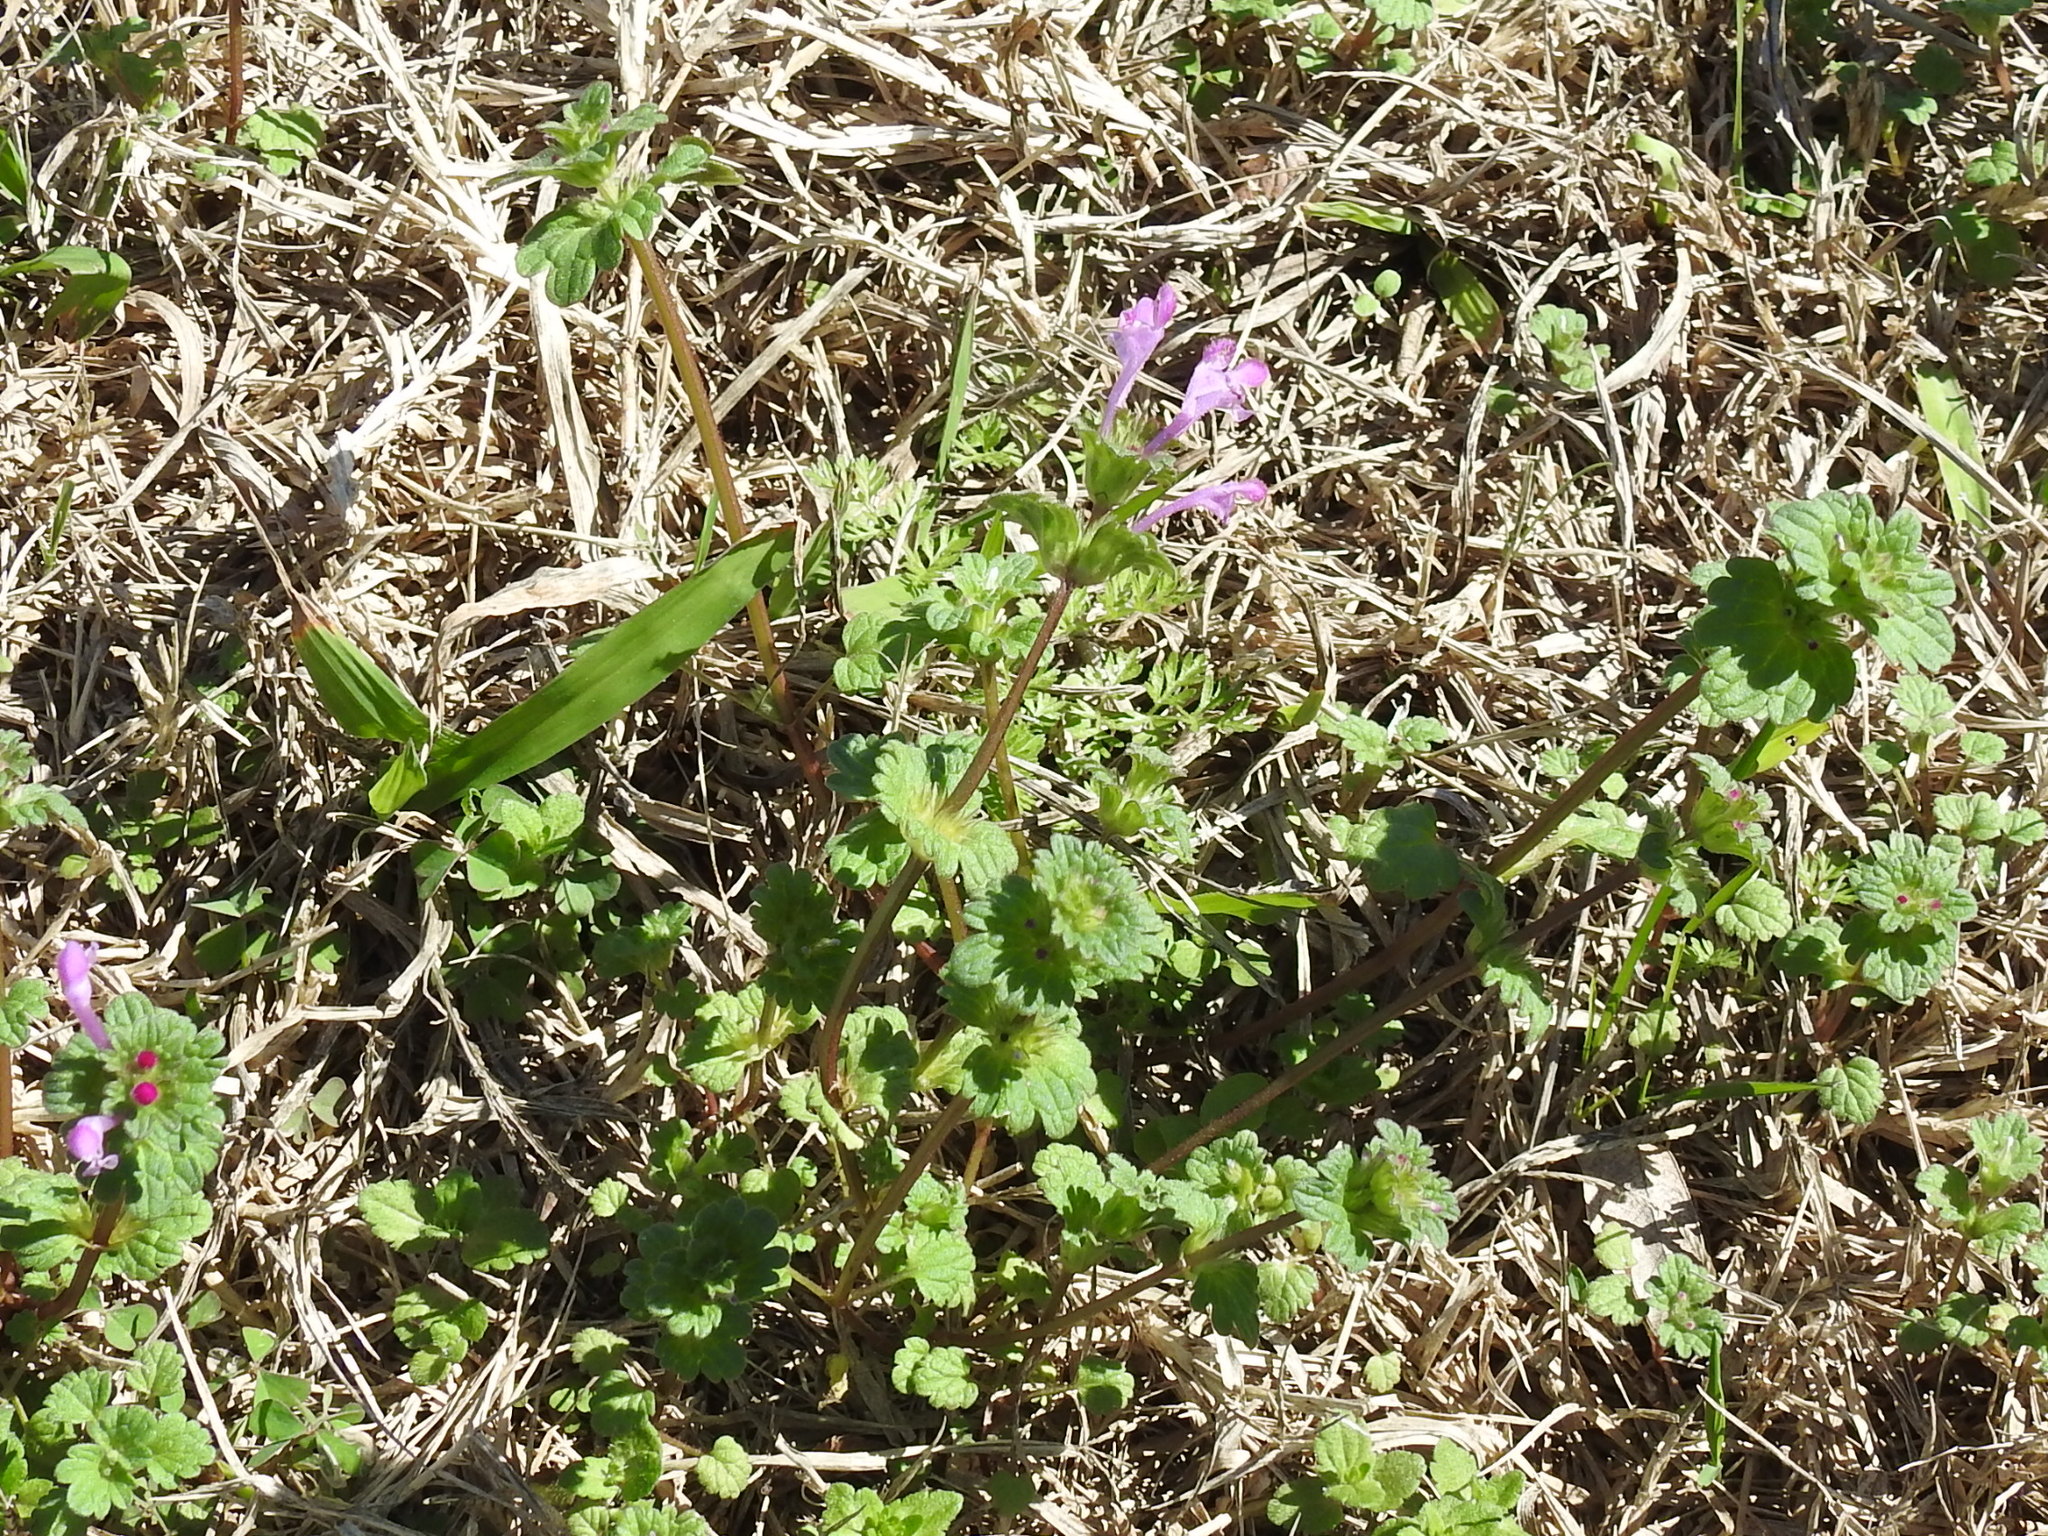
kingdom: Plantae
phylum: Tracheophyta
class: Magnoliopsida
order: Lamiales
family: Lamiaceae
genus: Lamium
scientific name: Lamium amplexicaule
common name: Henbit dead-nettle
